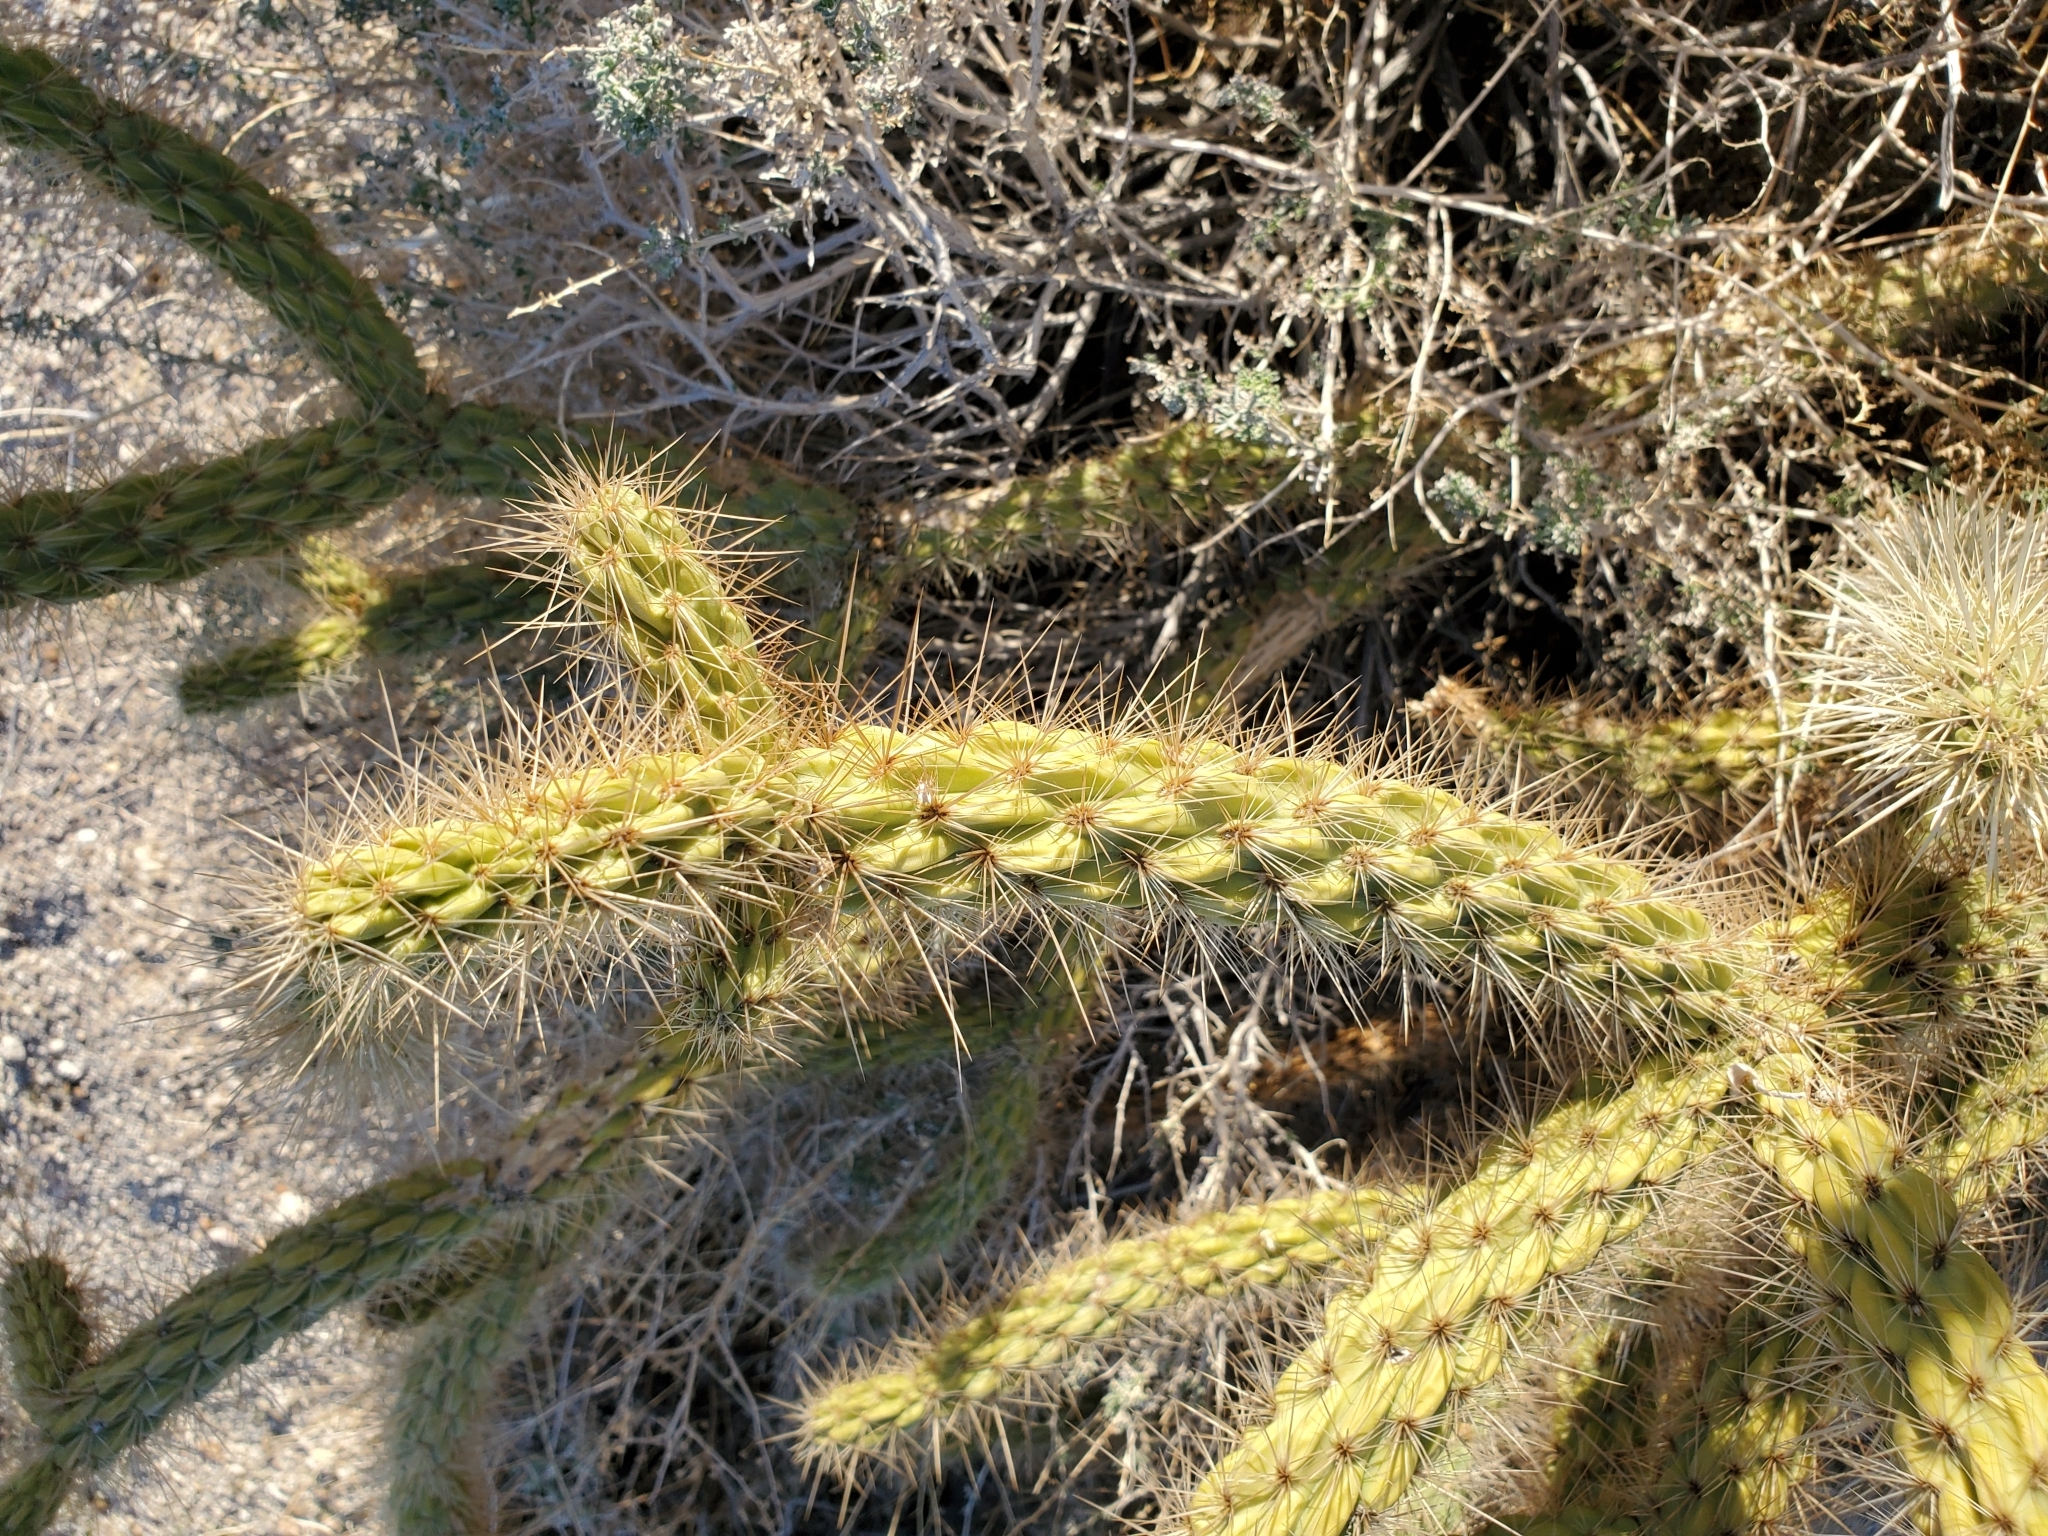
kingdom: Plantae
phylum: Tracheophyta
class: Magnoliopsida
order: Caryophyllales
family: Cactaceae
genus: Cylindropuntia
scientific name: Cylindropuntia ganderi
